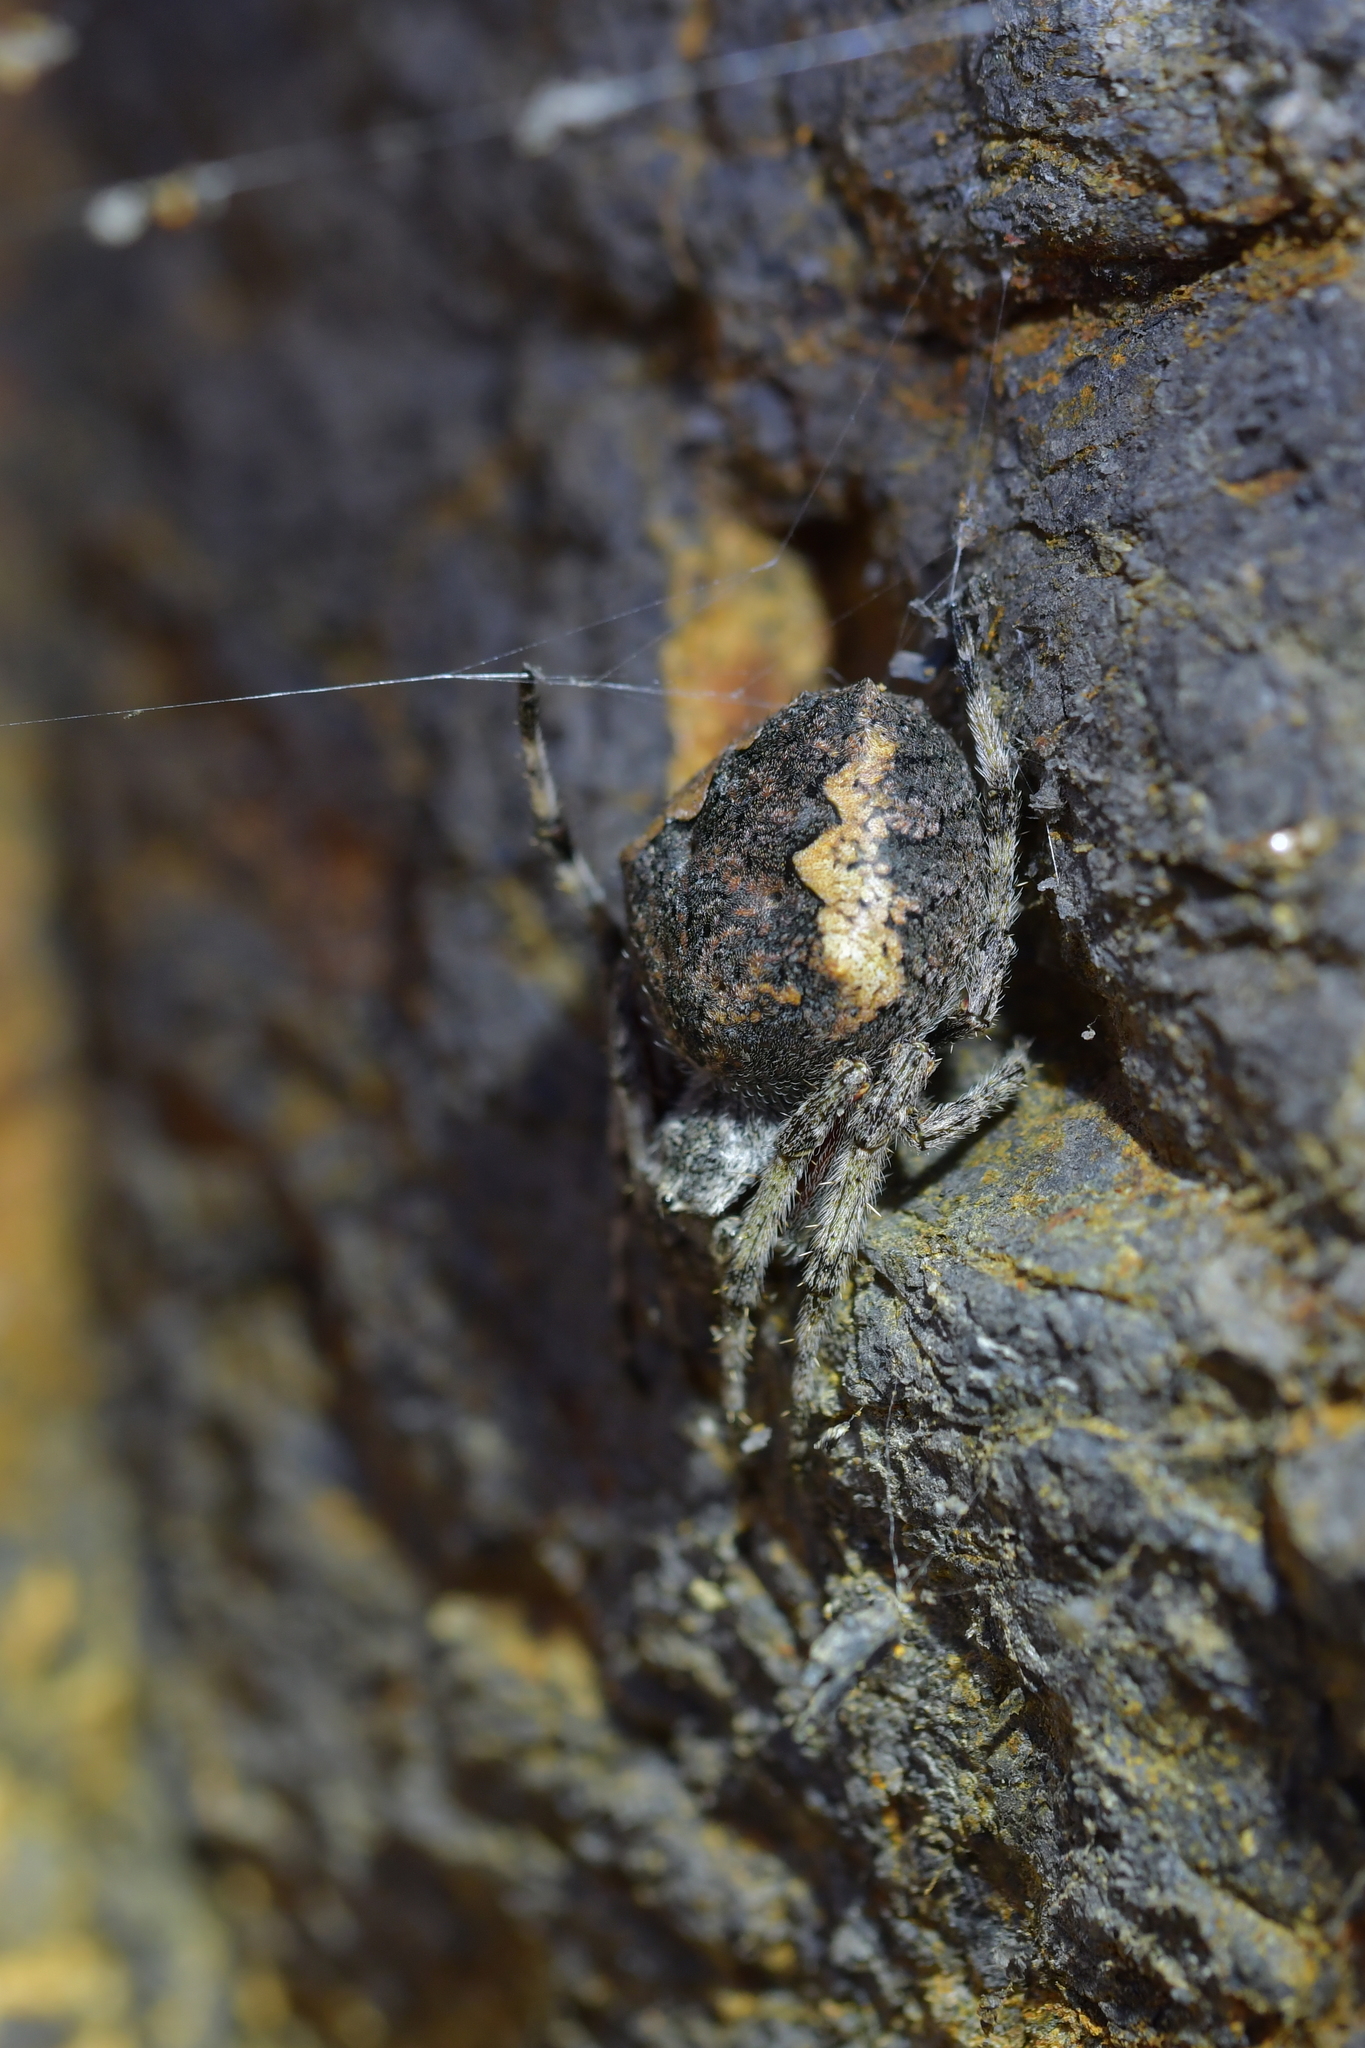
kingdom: Animalia
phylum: Arthropoda
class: Arachnida
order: Araneae
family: Araneidae
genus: Eriophora
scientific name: Eriophora pustulosa
